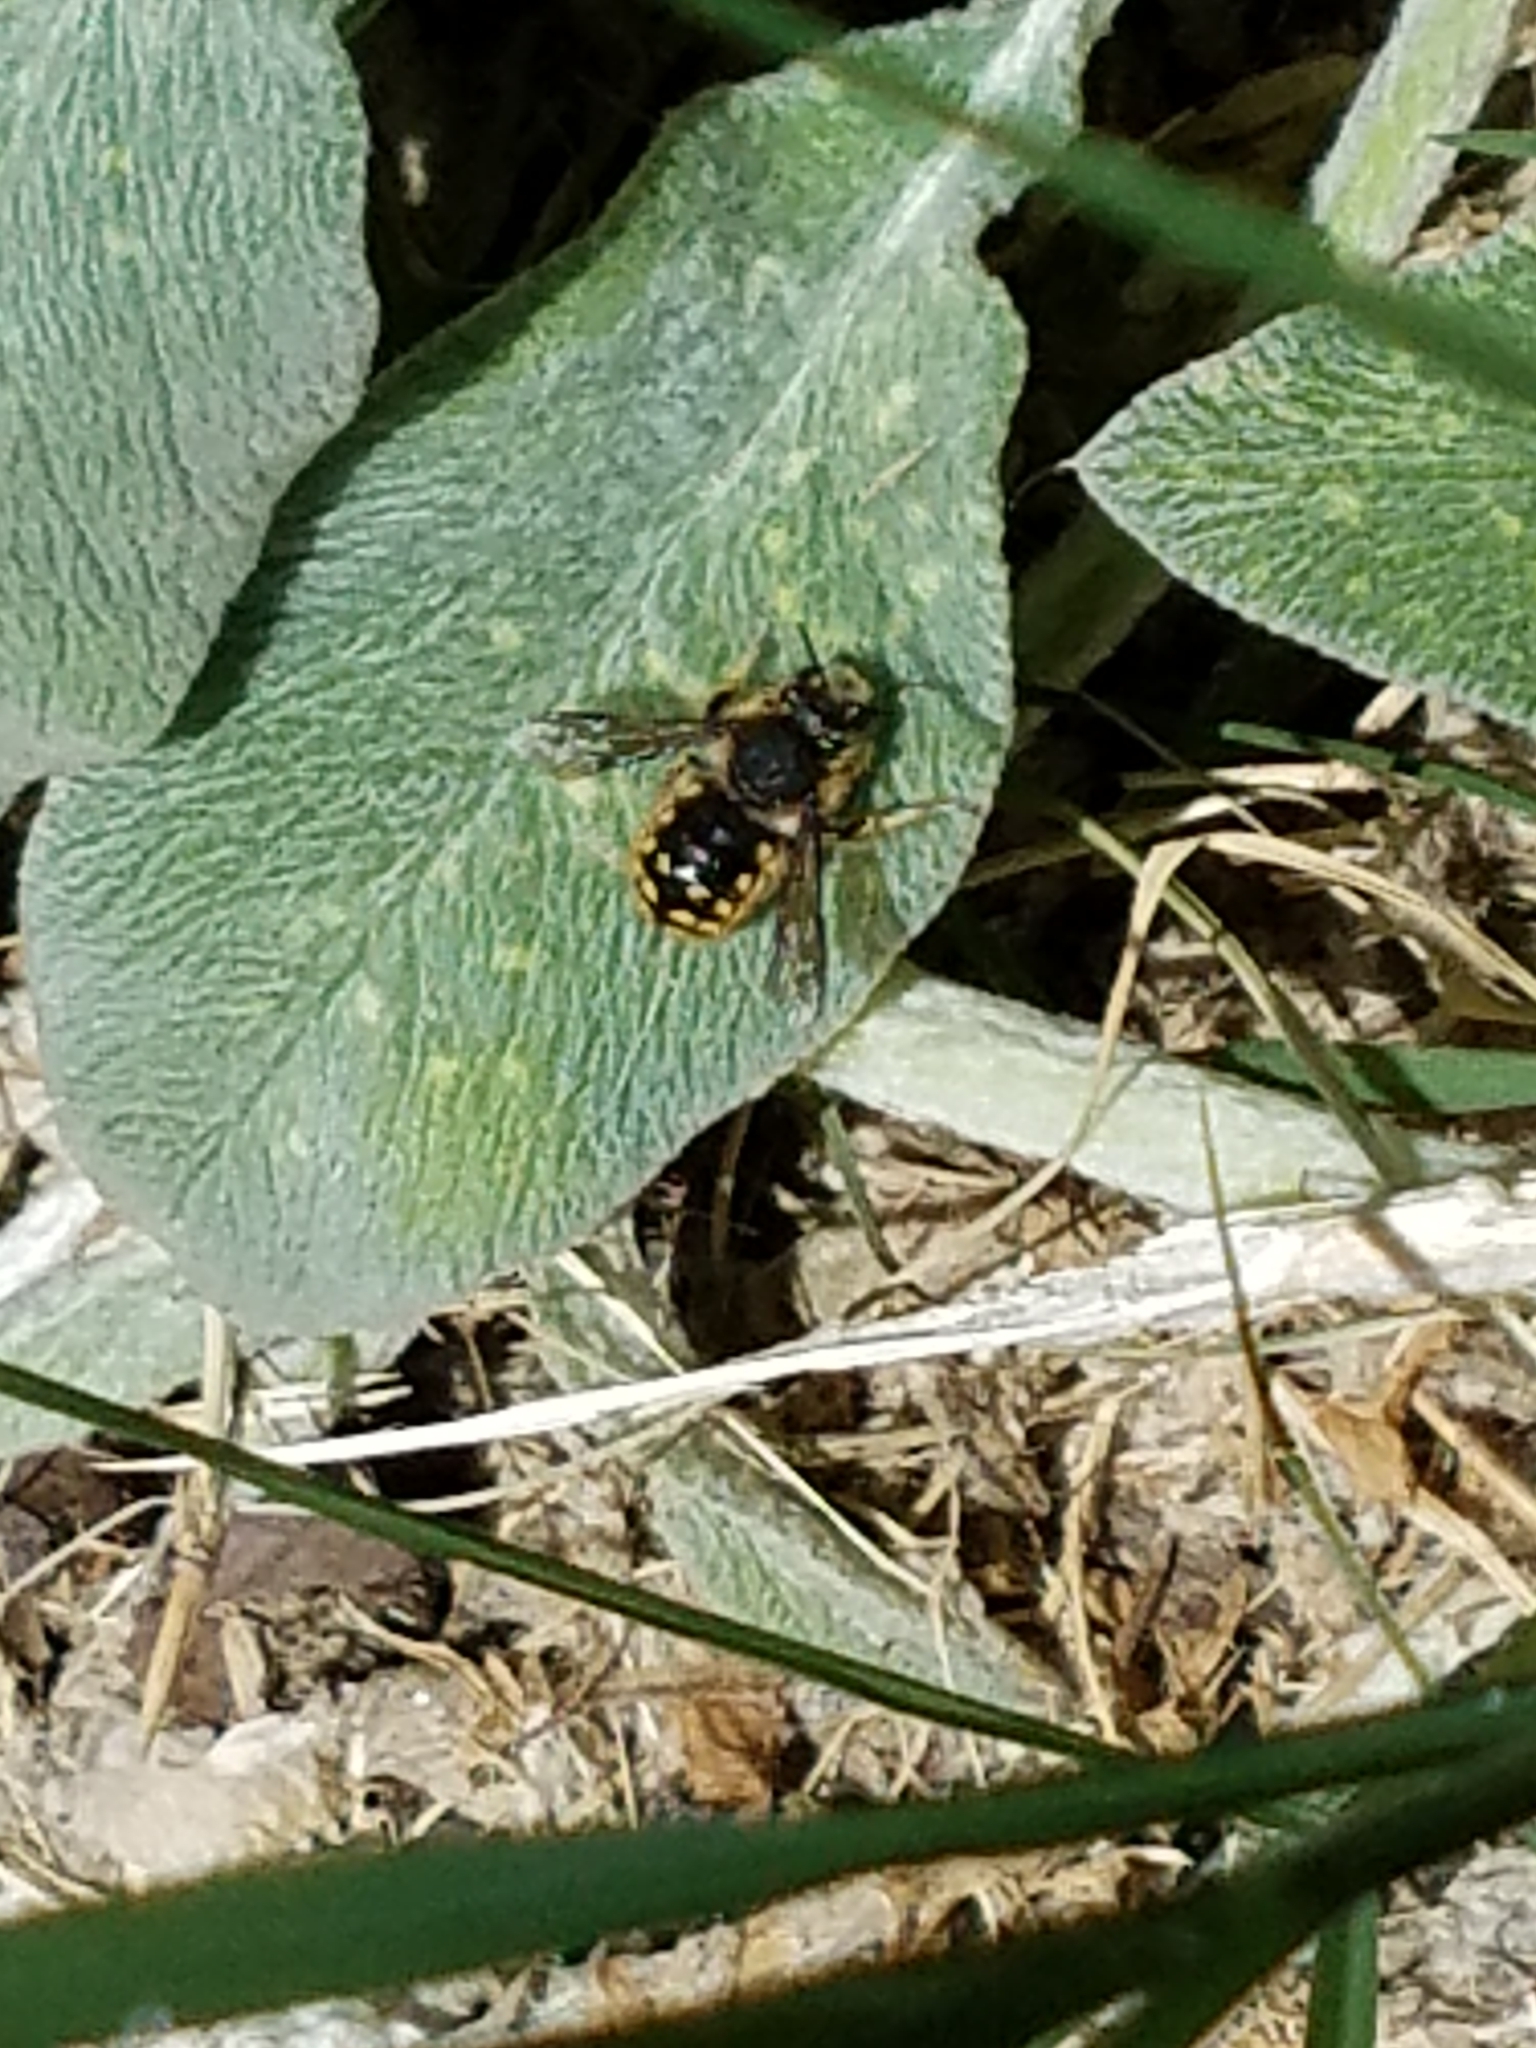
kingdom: Animalia
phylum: Arthropoda
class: Insecta
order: Hymenoptera
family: Megachilidae
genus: Anthidium
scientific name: Anthidium manicatum
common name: Wool carder bee
